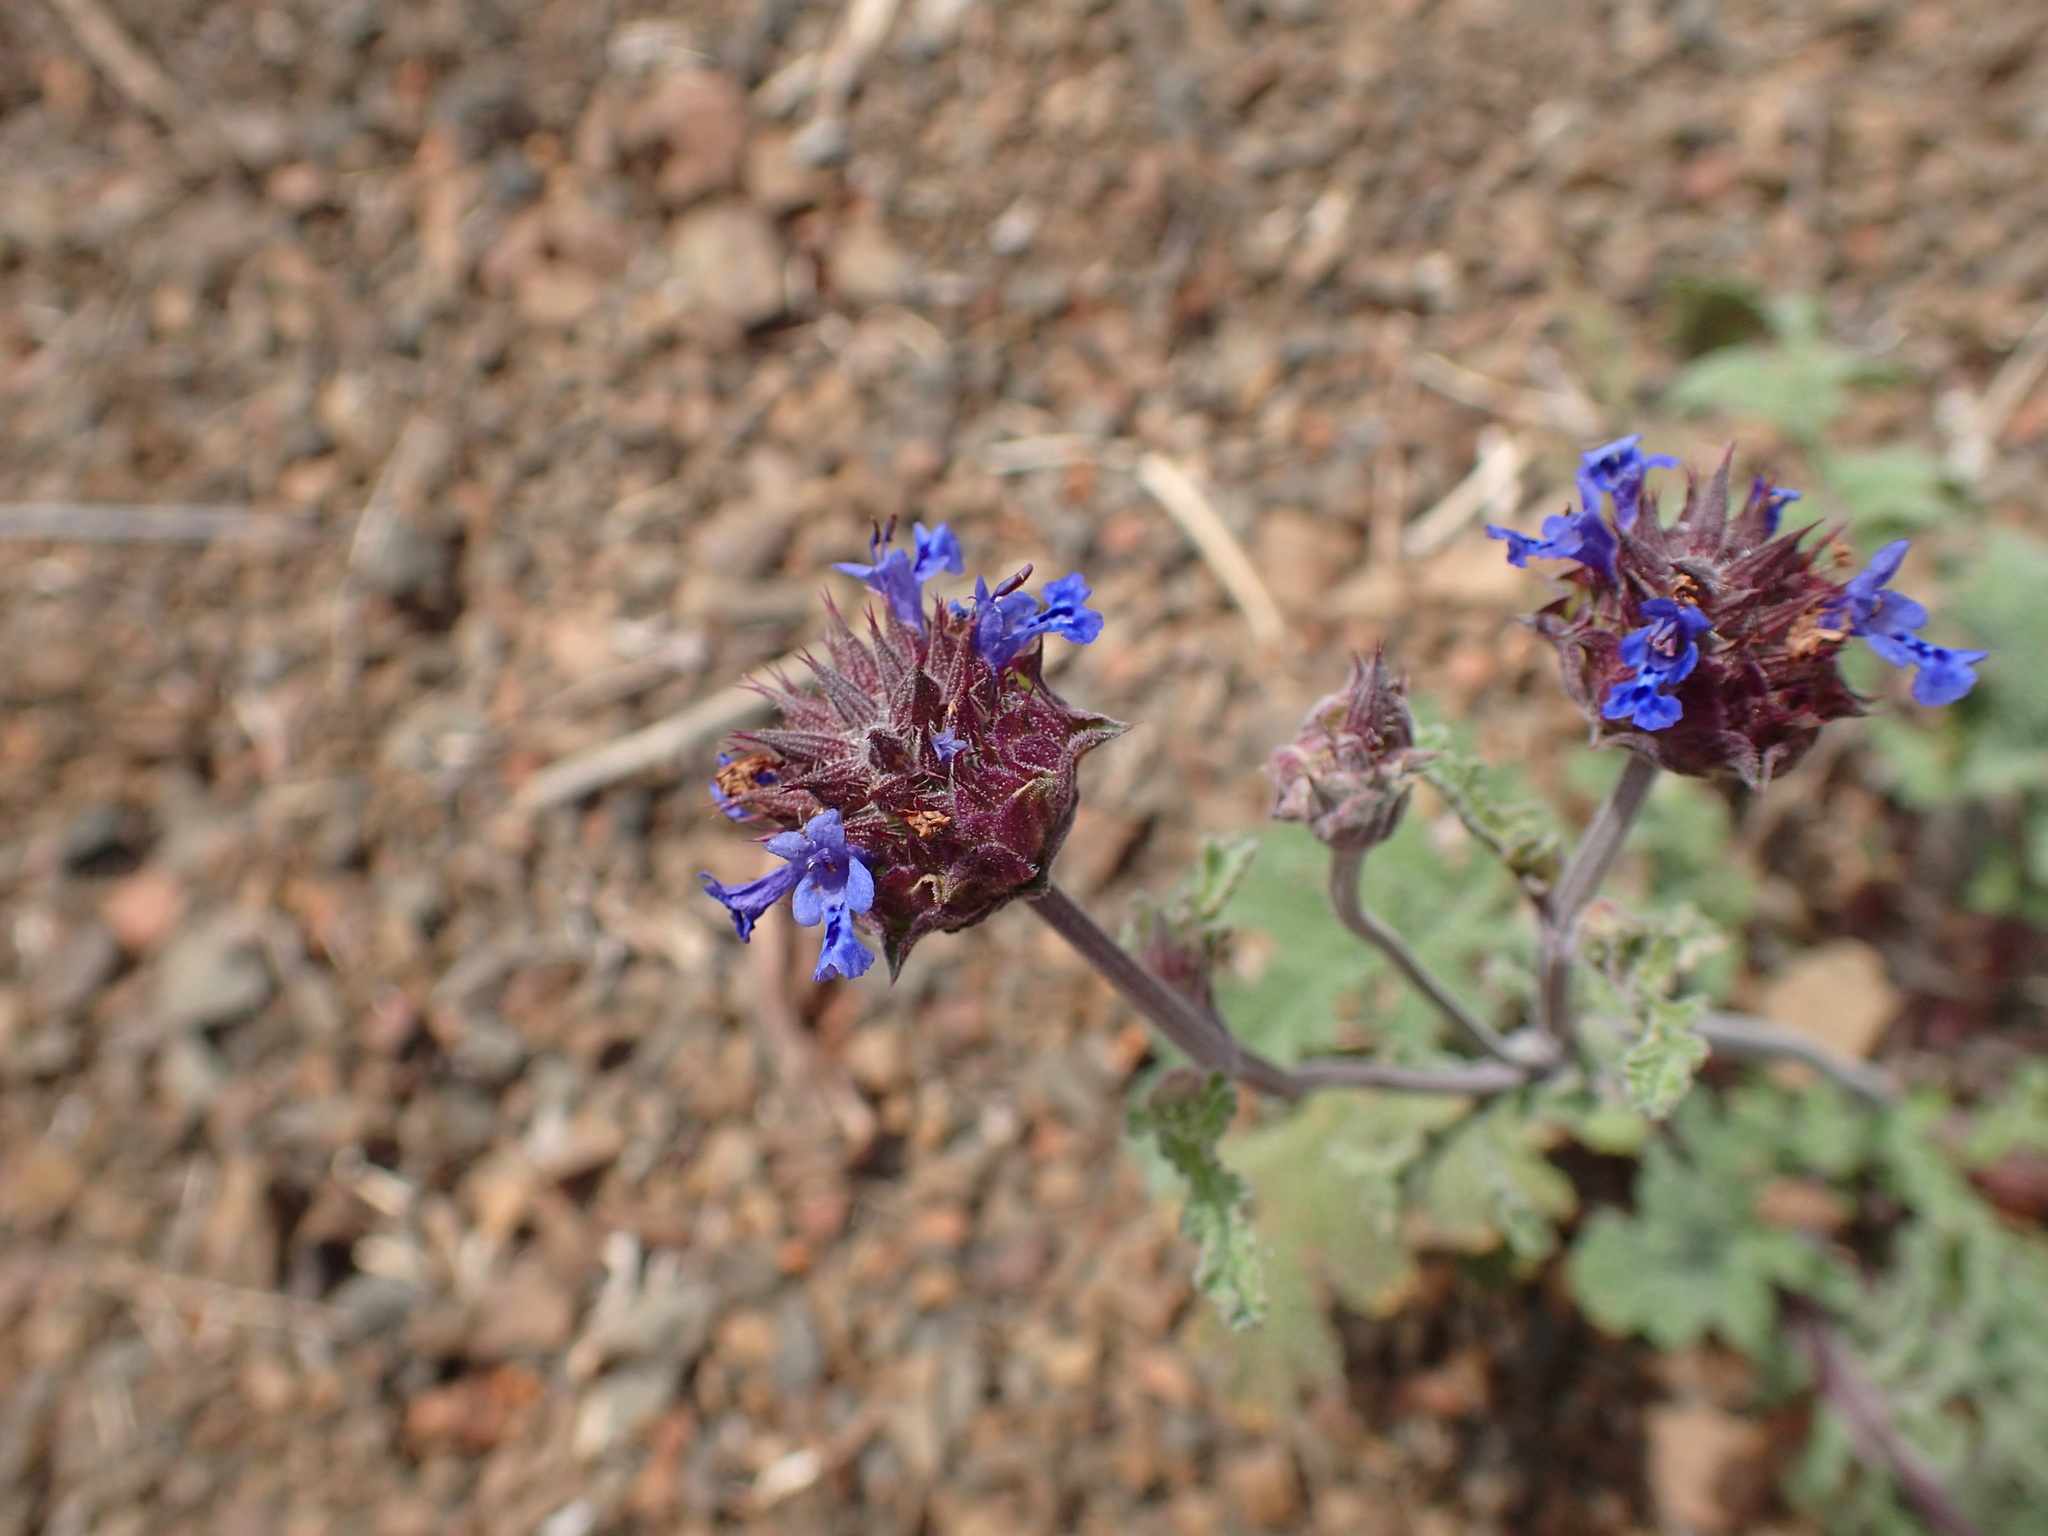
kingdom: Plantae
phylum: Tracheophyta
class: Magnoliopsida
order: Lamiales
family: Lamiaceae
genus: Salvia
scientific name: Salvia columbariae
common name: Chia
